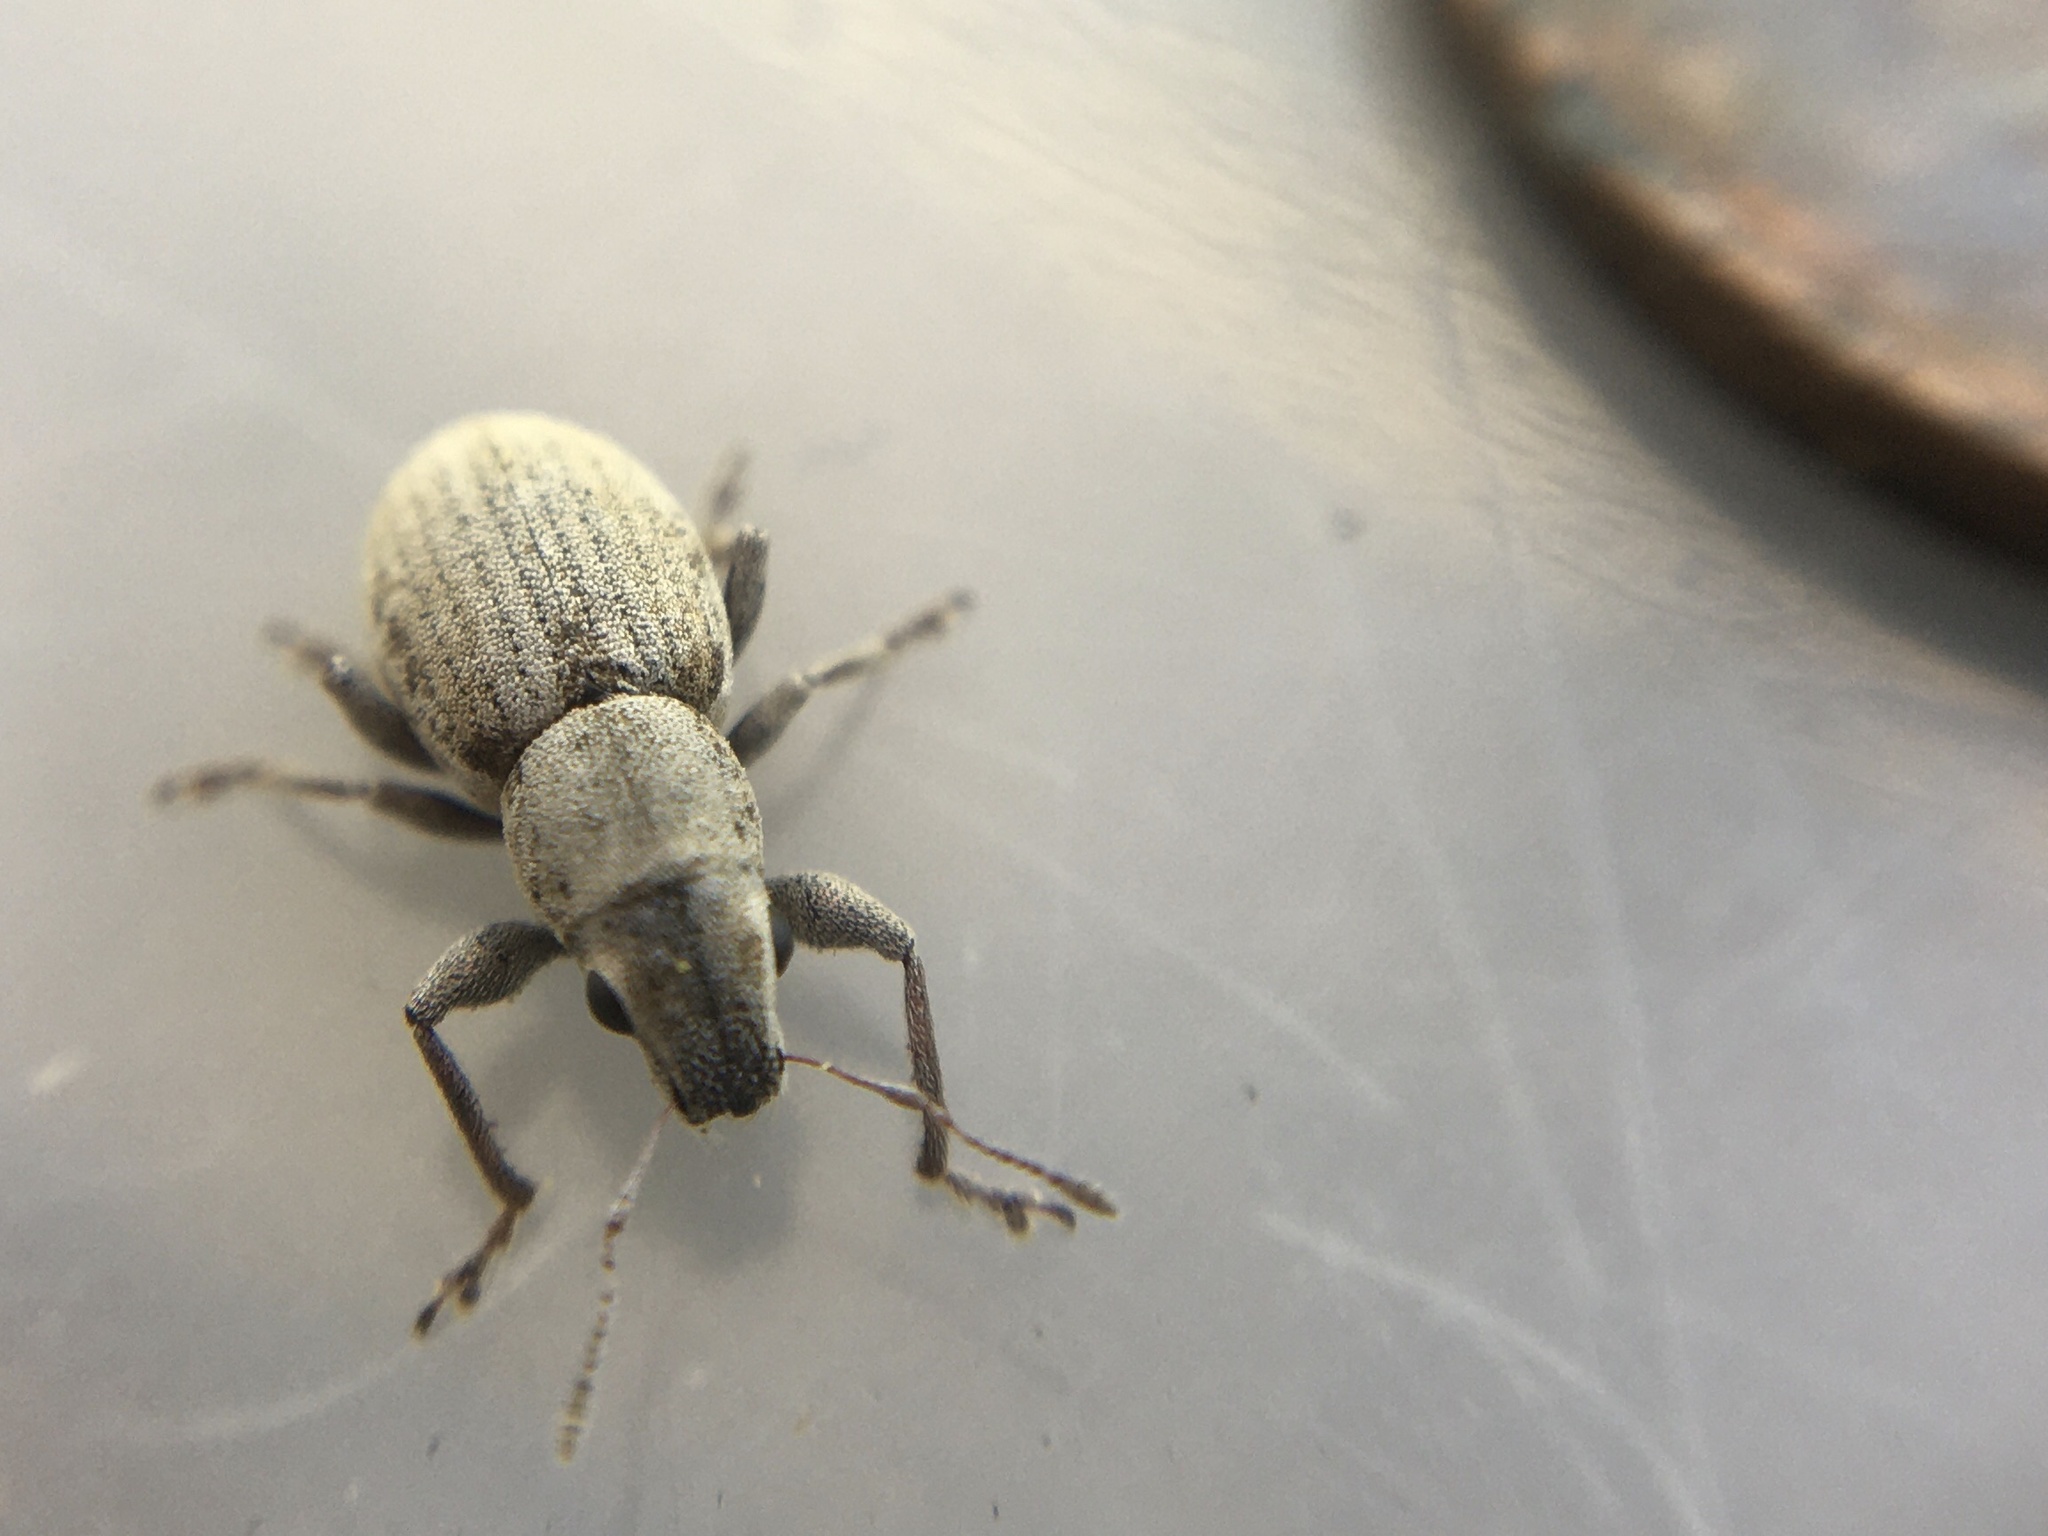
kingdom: Animalia
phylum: Arthropoda
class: Insecta
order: Coleoptera
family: Curculionidae
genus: Atrichonotus
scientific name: Atrichonotus taeniatulus
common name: Small lucerne weevil
